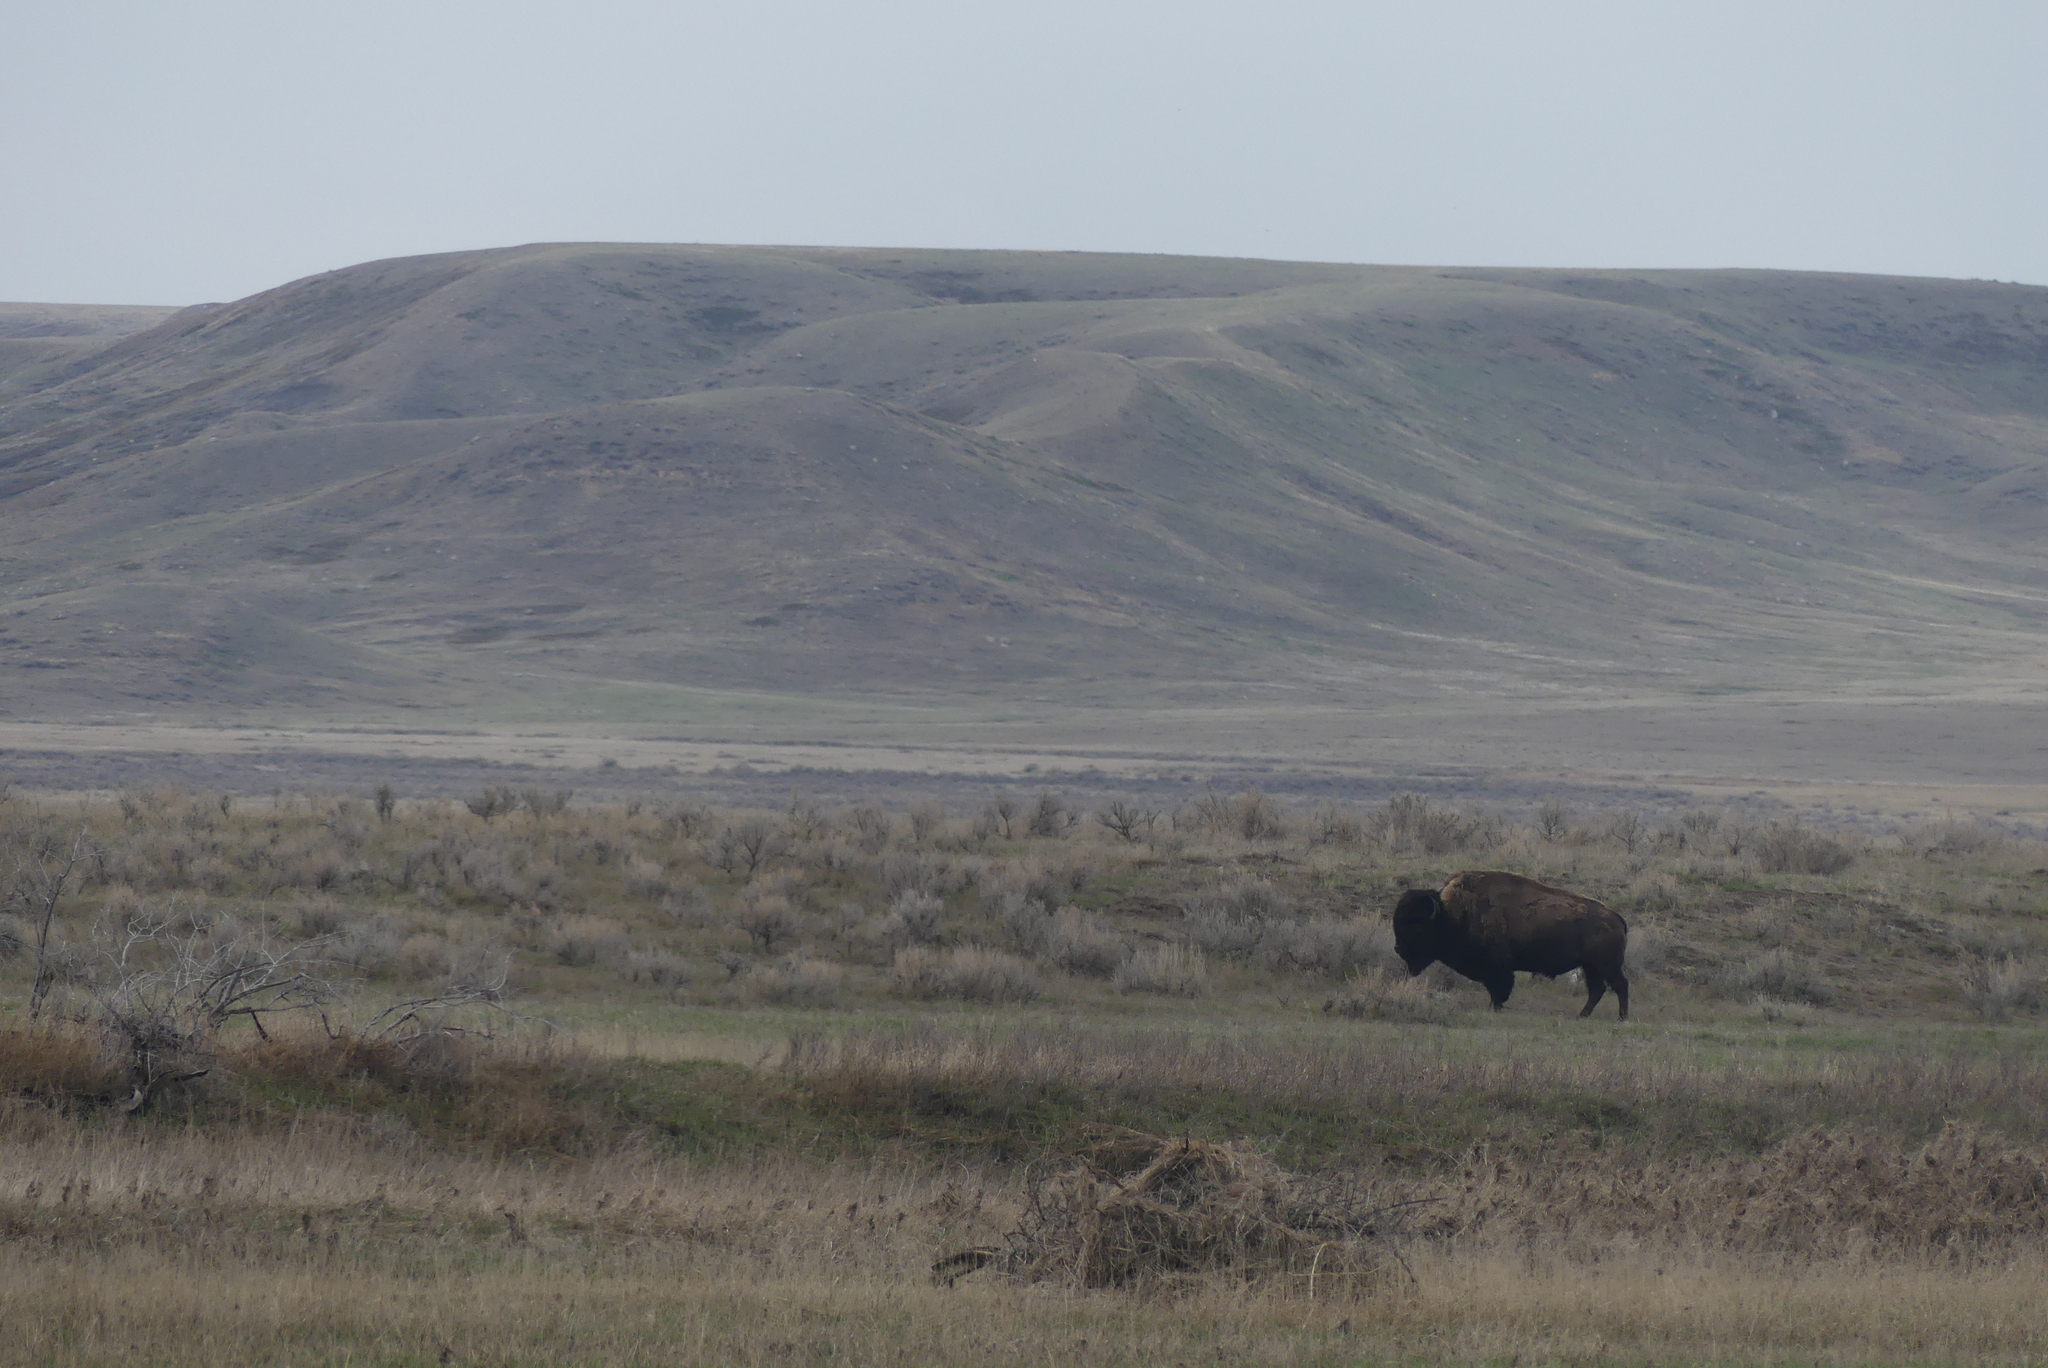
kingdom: Animalia
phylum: Chordata
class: Mammalia
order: Artiodactyla
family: Bovidae
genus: Bison
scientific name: Bison bison
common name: American bison
